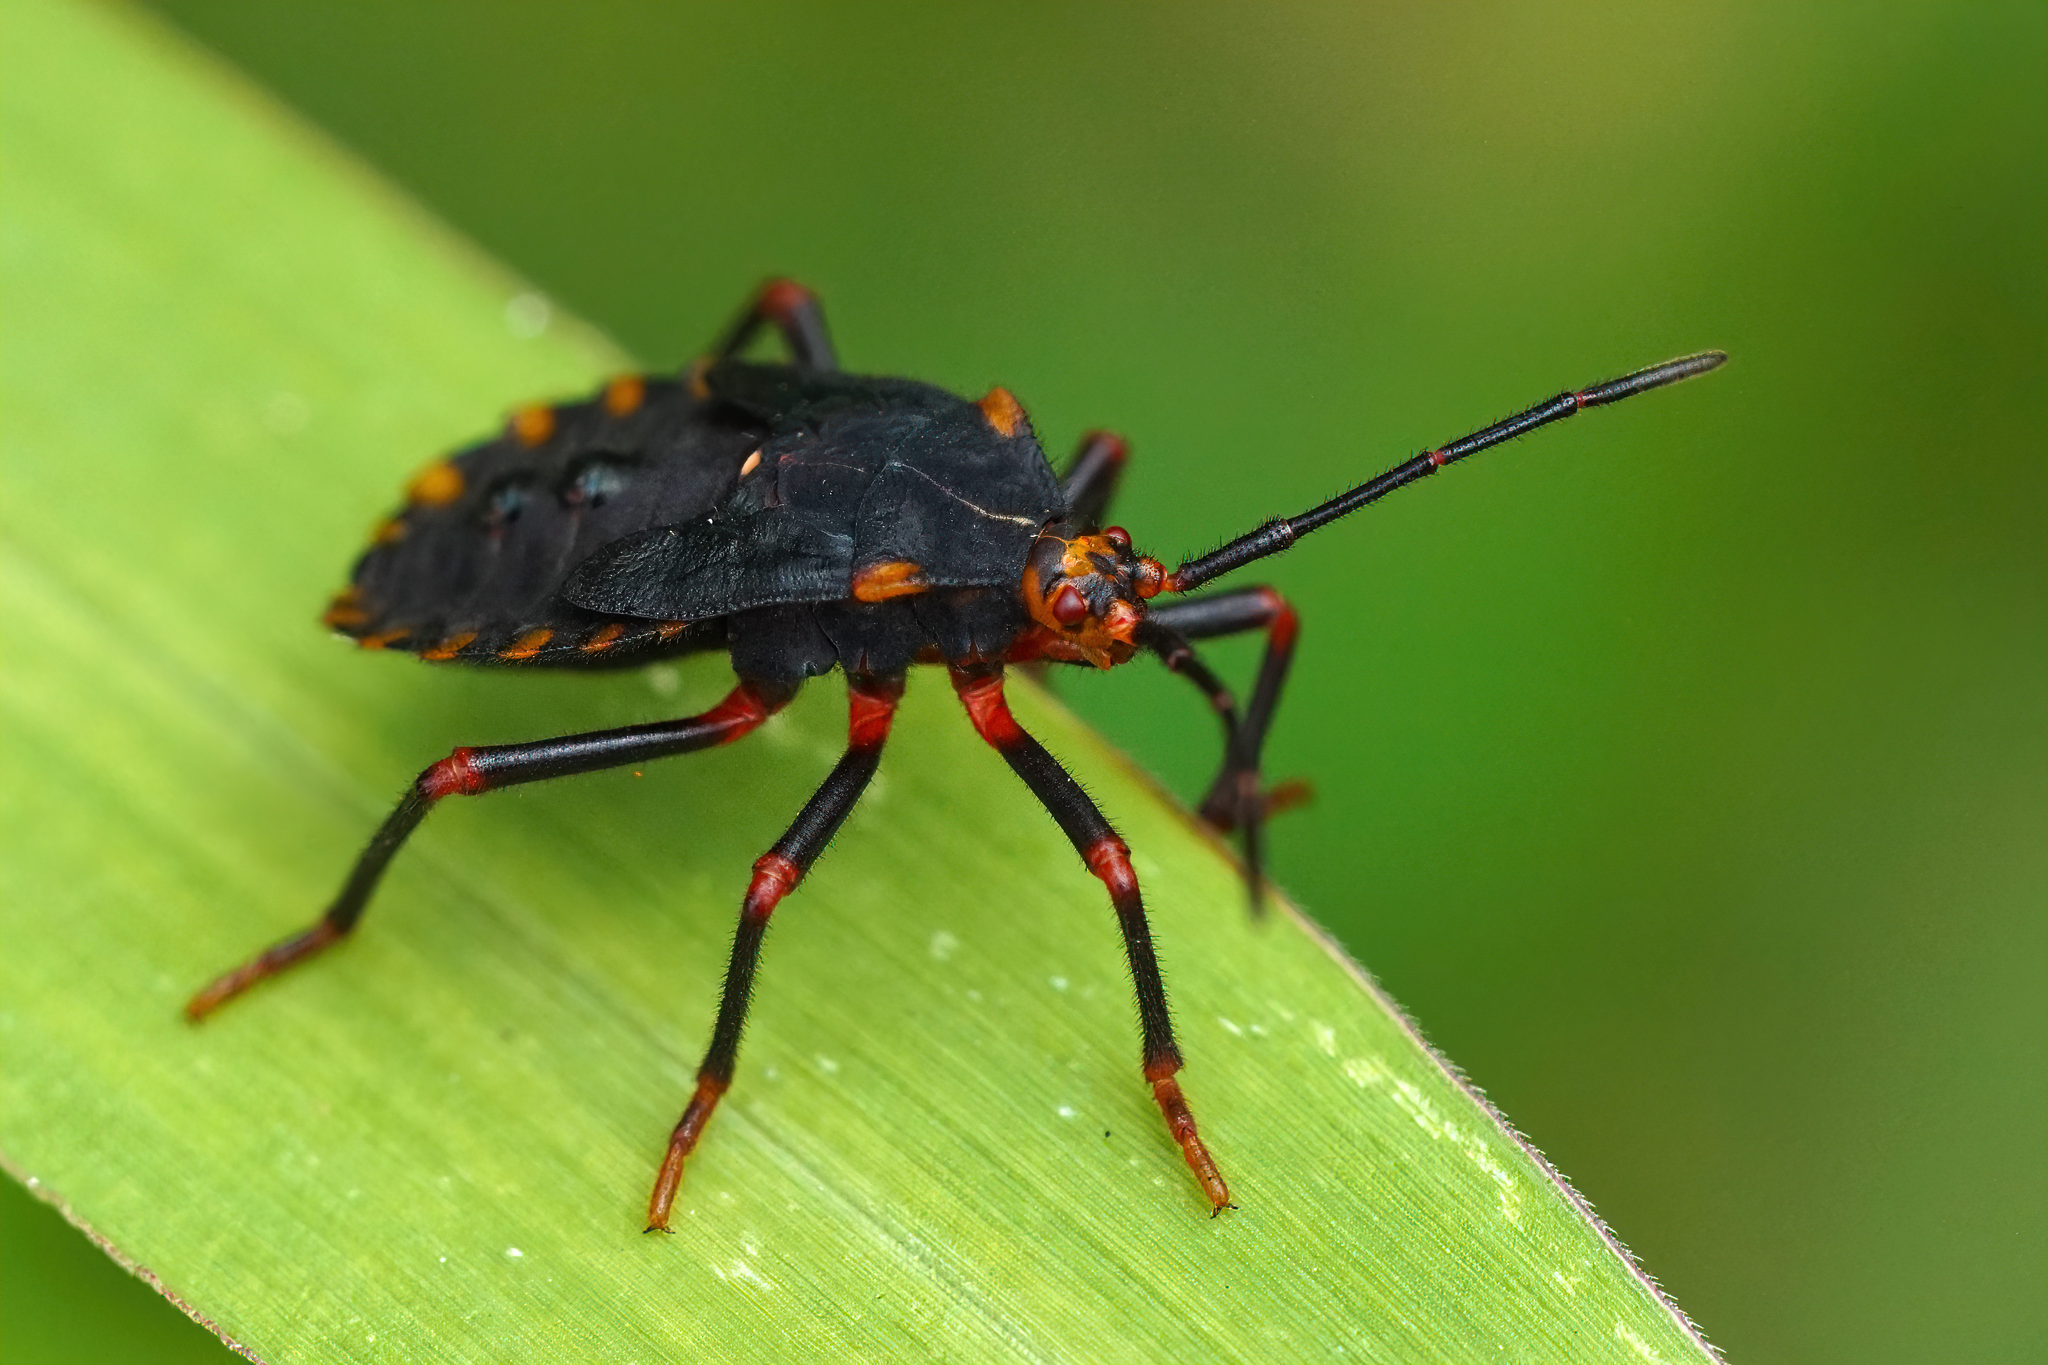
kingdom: Animalia
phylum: Arthropoda
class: Insecta
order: Hemiptera
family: Coreidae
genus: Spartocera
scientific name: Spartocera batatas
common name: Giant sweetpotato bug
